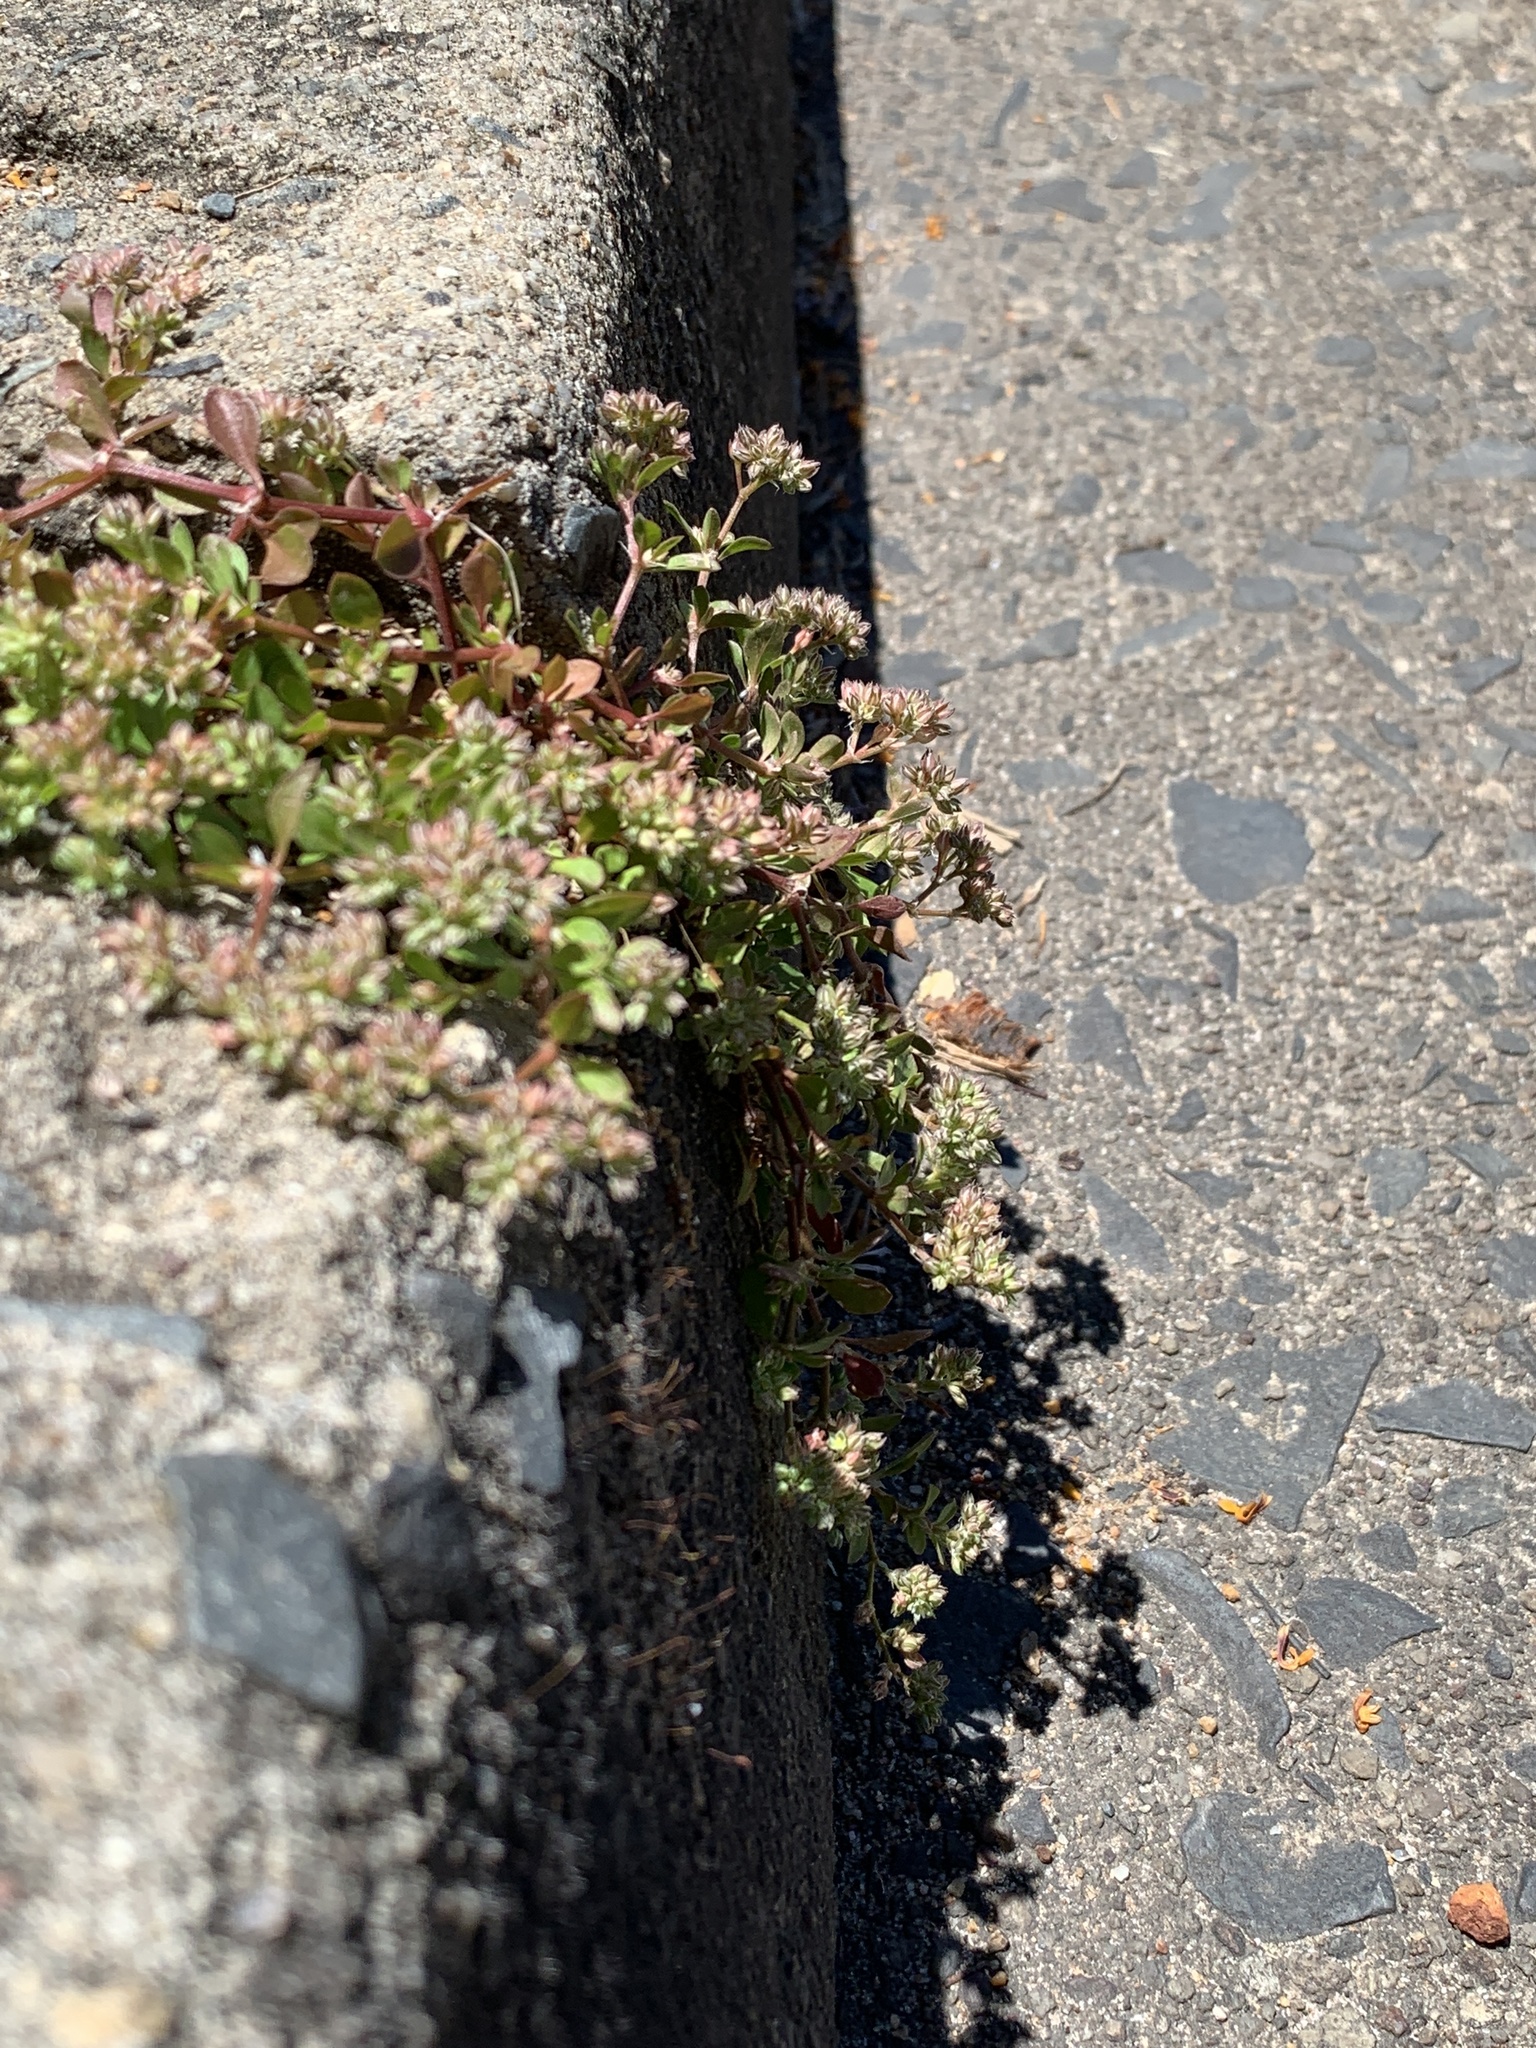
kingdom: Plantae
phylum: Tracheophyta
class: Magnoliopsida
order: Caryophyllales
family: Caryophyllaceae
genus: Polycarpon
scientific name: Polycarpon tetraphyllum
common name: Four-leaved all-seed
